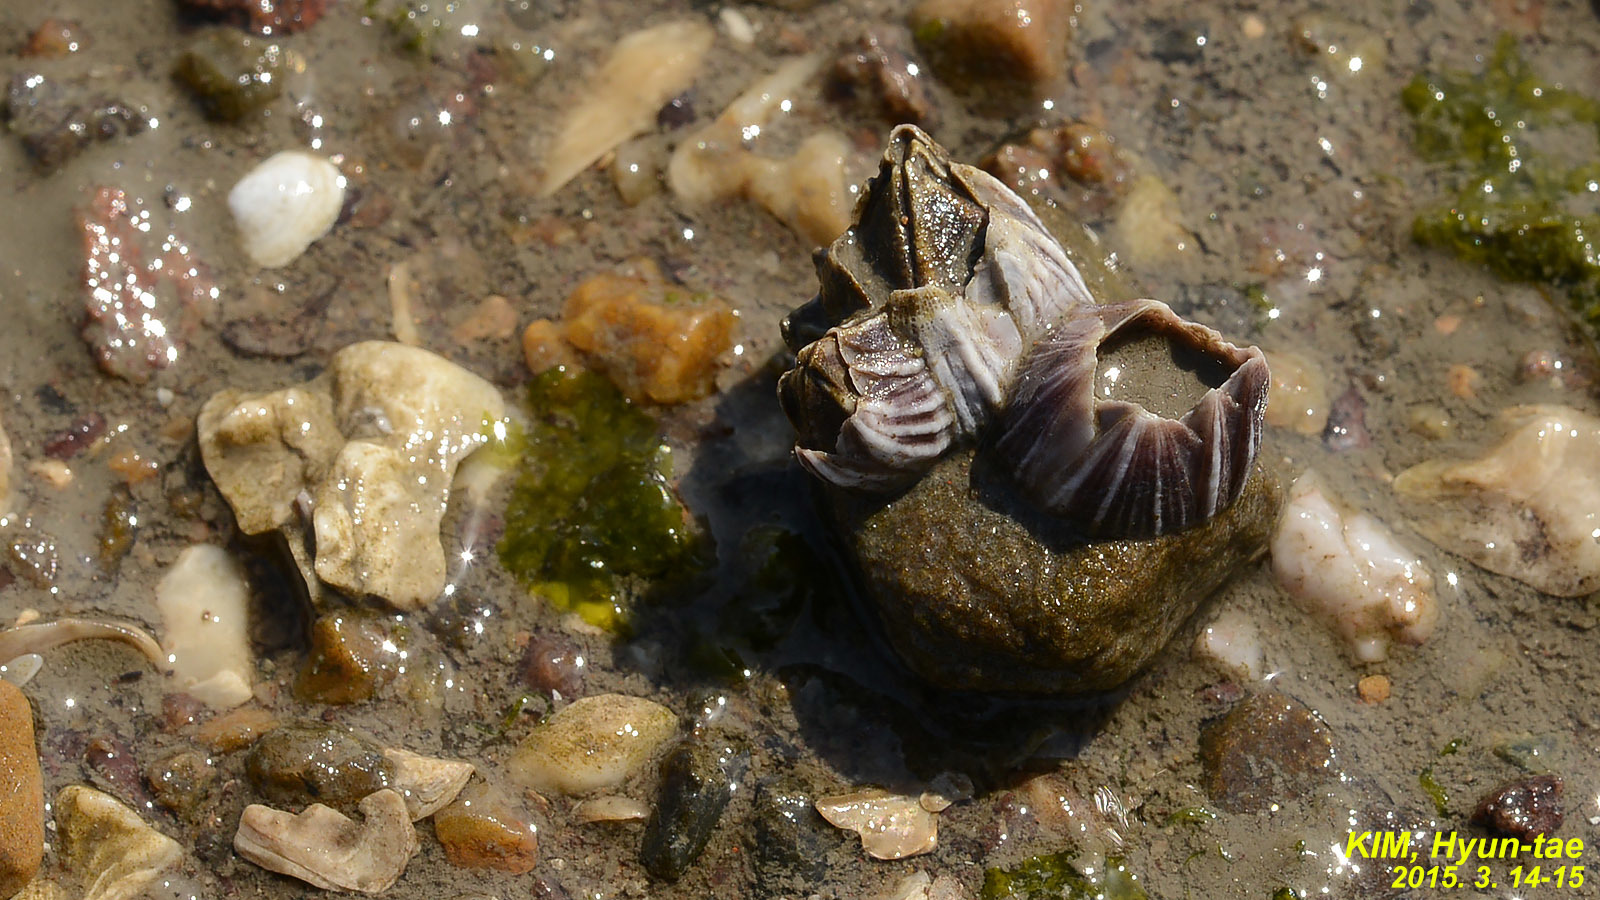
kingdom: Animalia
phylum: Arthropoda
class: Maxillopoda
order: Sessilia
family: Balanidae
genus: Fistulobalanus
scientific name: Fistulobalanus albicostatus
